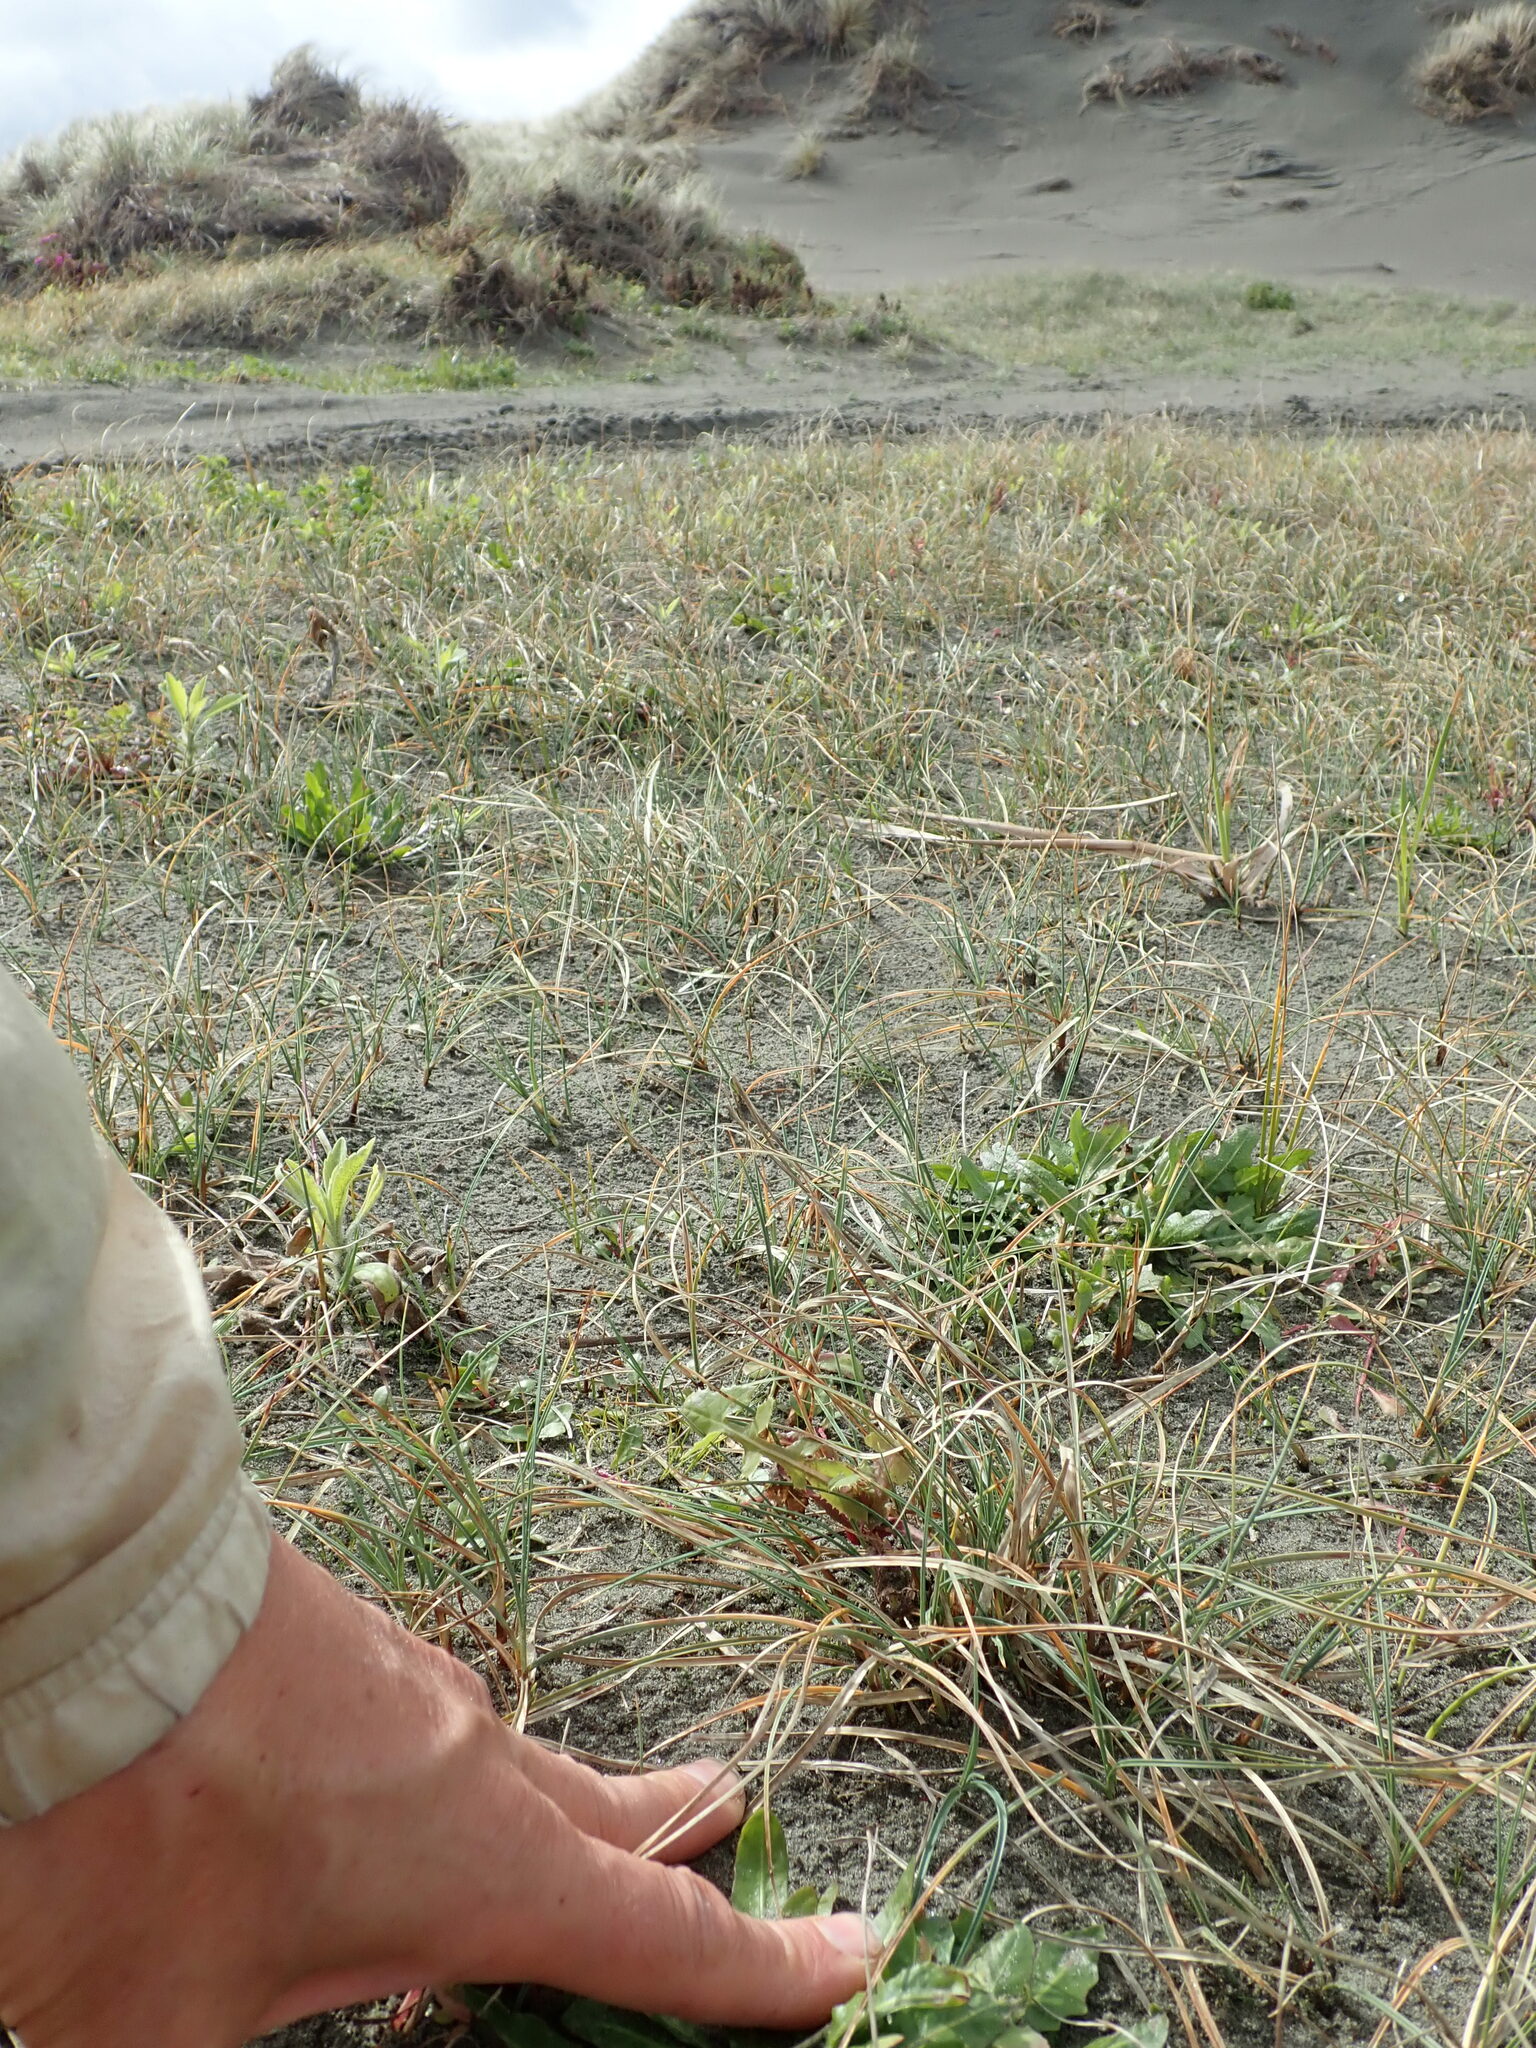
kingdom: Plantae
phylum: Tracheophyta
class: Liliopsida
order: Poales
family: Cyperaceae
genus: Carex
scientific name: Carex pumila
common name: Dwarf sedge
